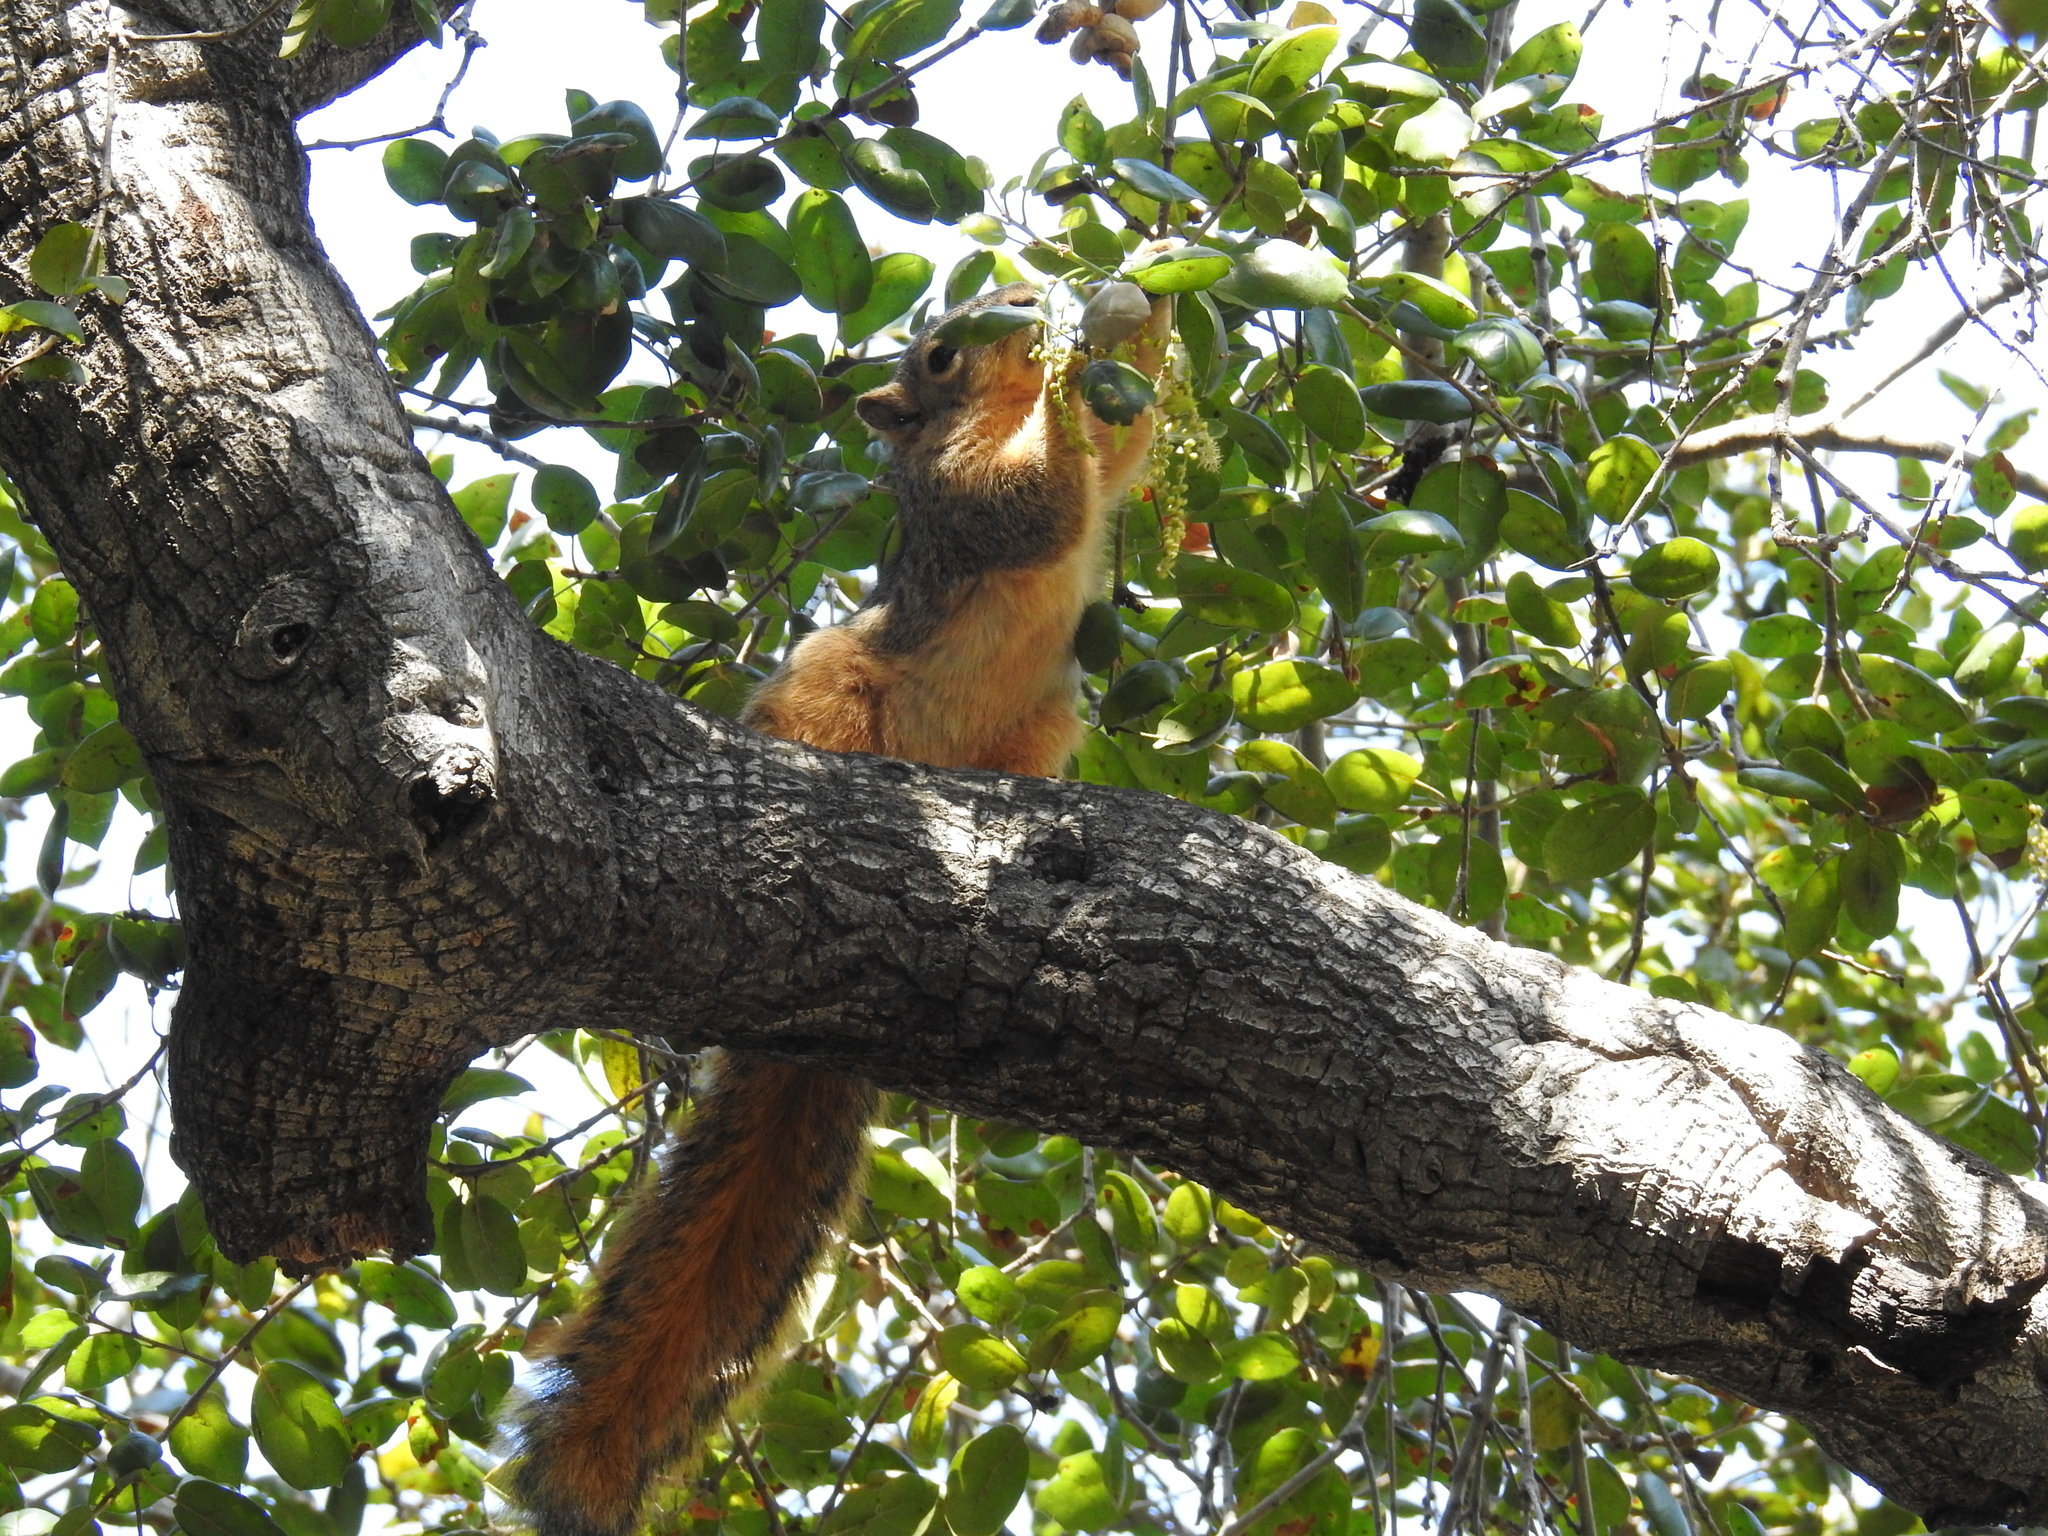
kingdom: Animalia
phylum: Chordata
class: Mammalia
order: Rodentia
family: Sciuridae
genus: Sciurus
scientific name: Sciurus niger
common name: Fox squirrel
